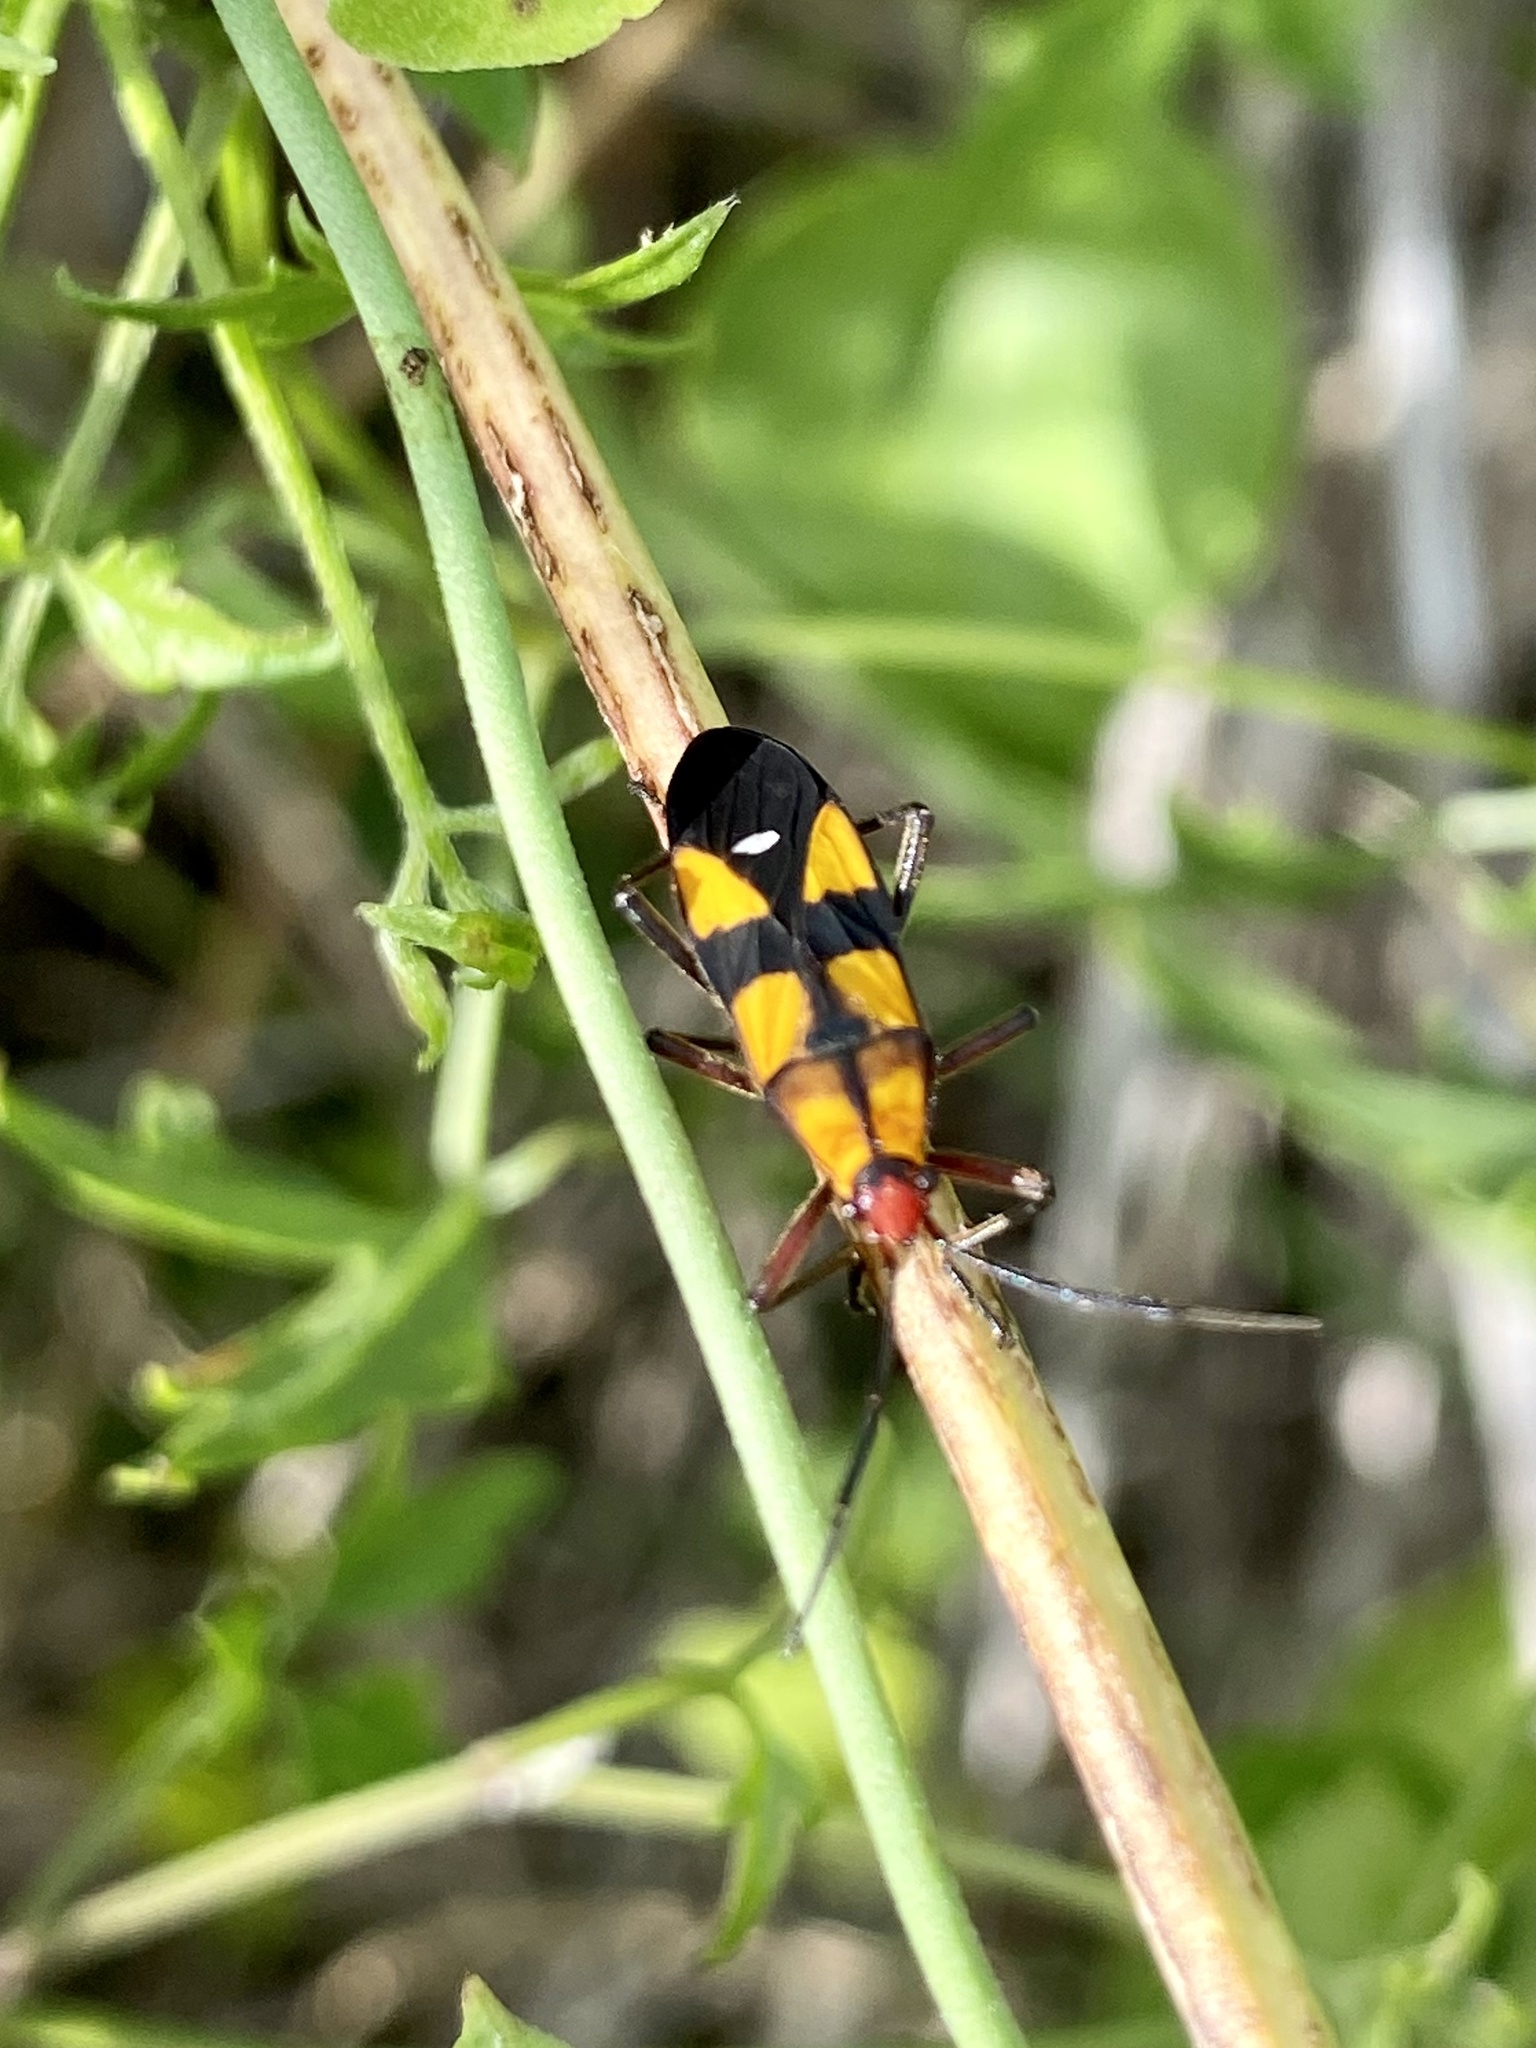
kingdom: Animalia
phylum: Arthropoda
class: Insecta
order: Hemiptera
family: Lygaeidae
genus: Oncopeltus
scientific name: Oncopeltus sexmaculatus
